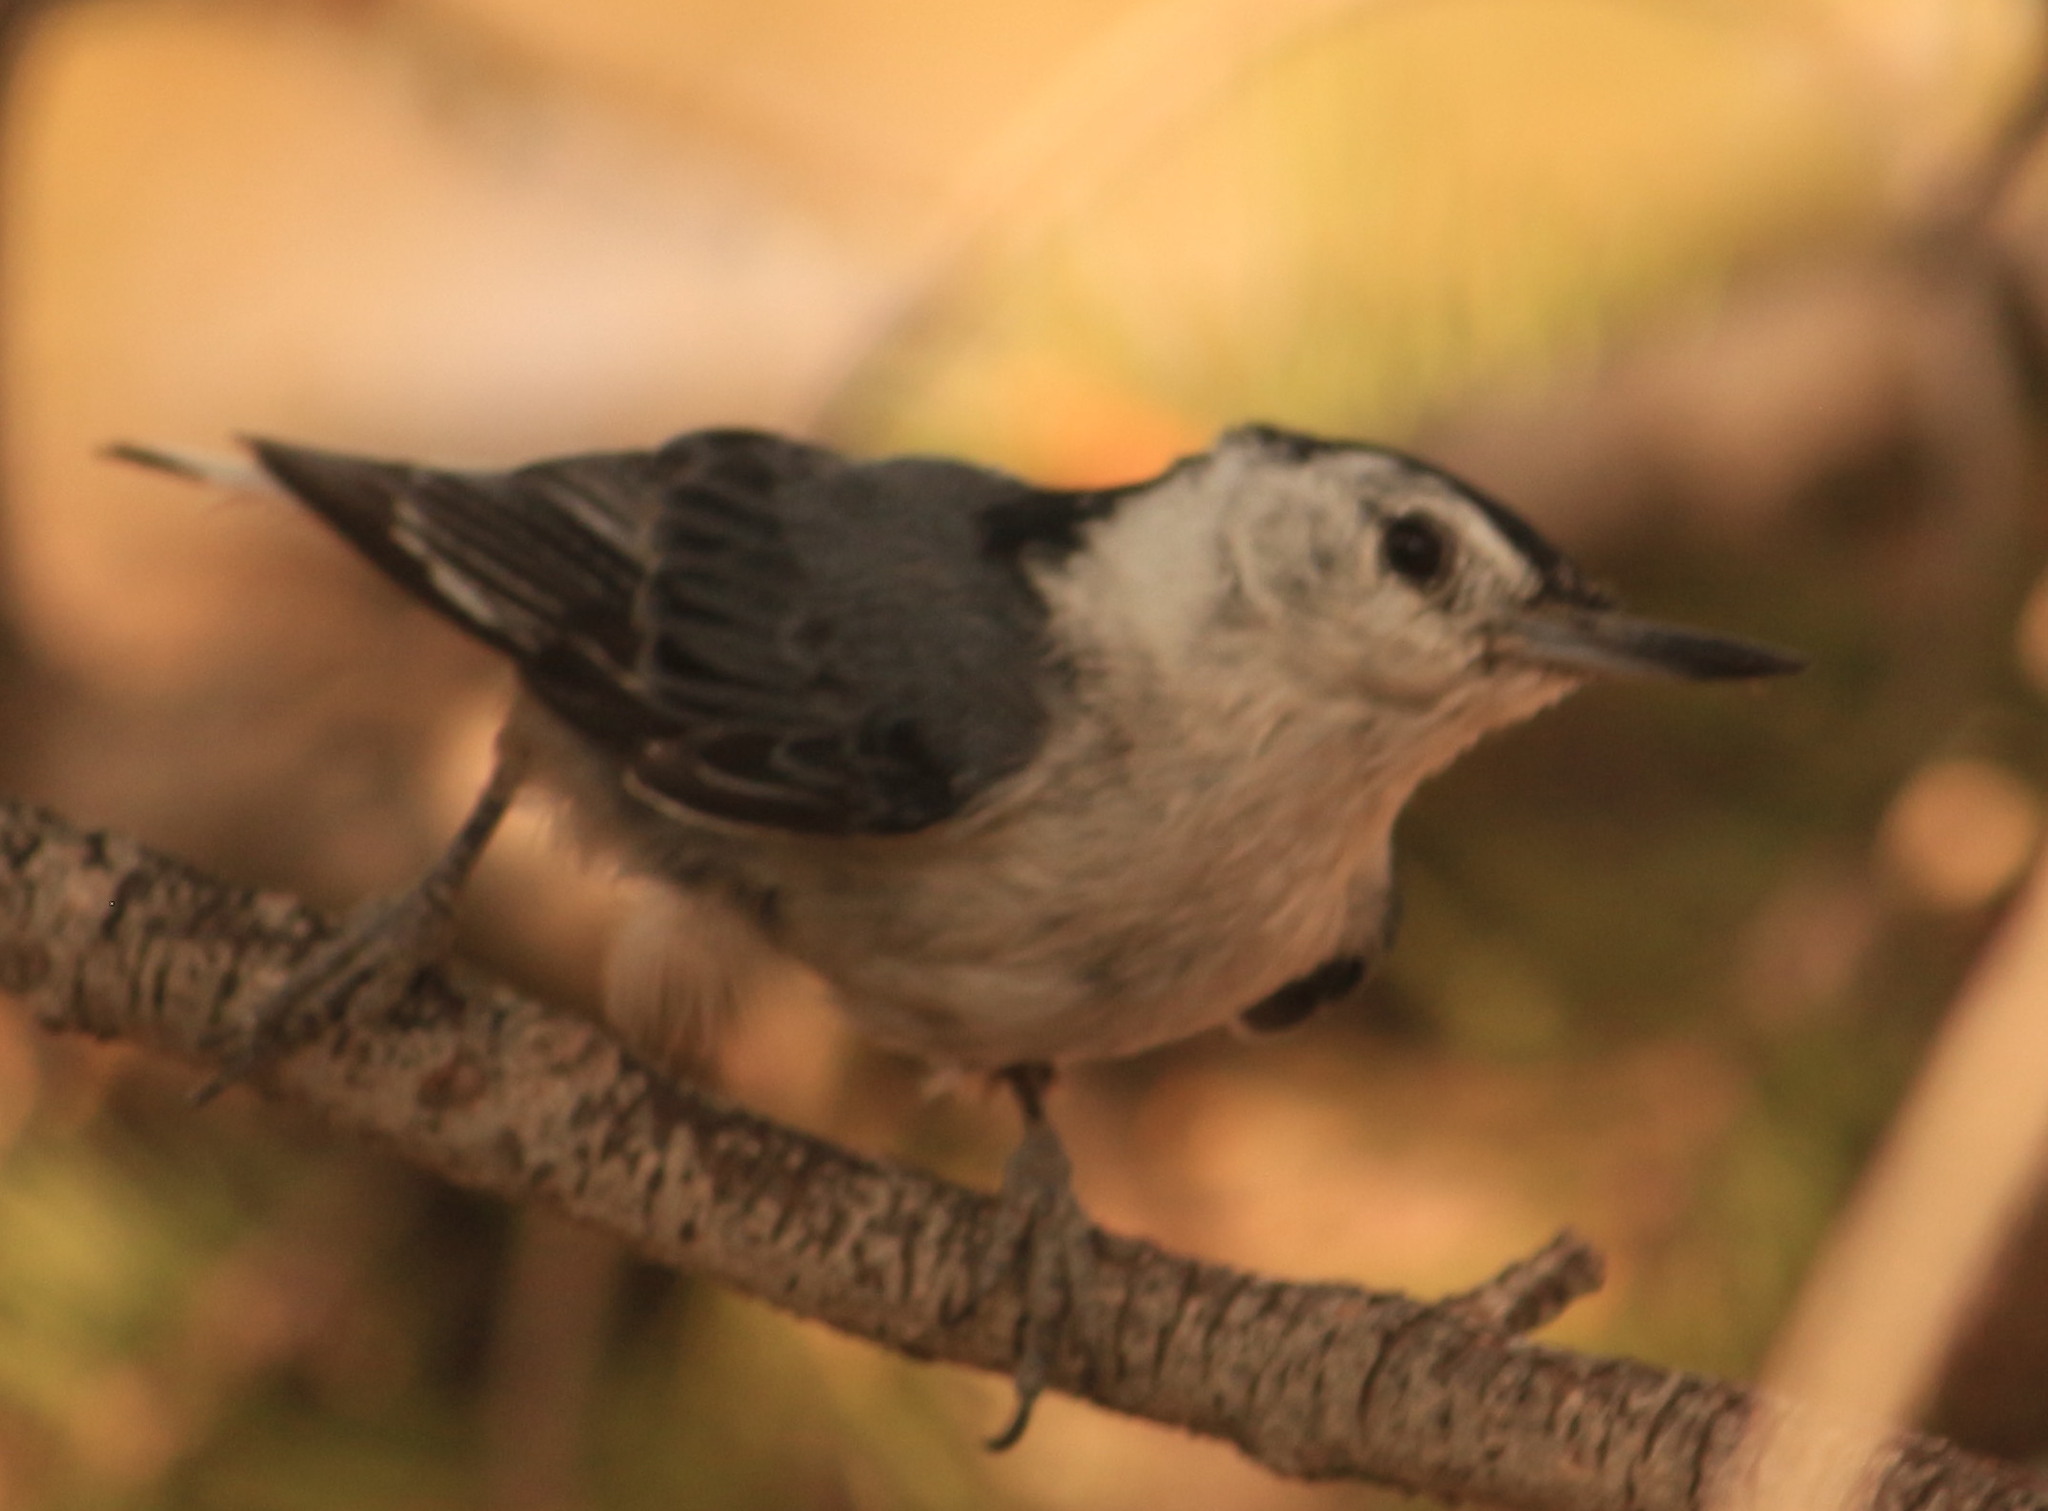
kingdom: Animalia
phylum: Chordata
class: Aves
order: Passeriformes
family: Sittidae
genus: Sitta
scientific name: Sitta carolinensis
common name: White-breasted nuthatch
